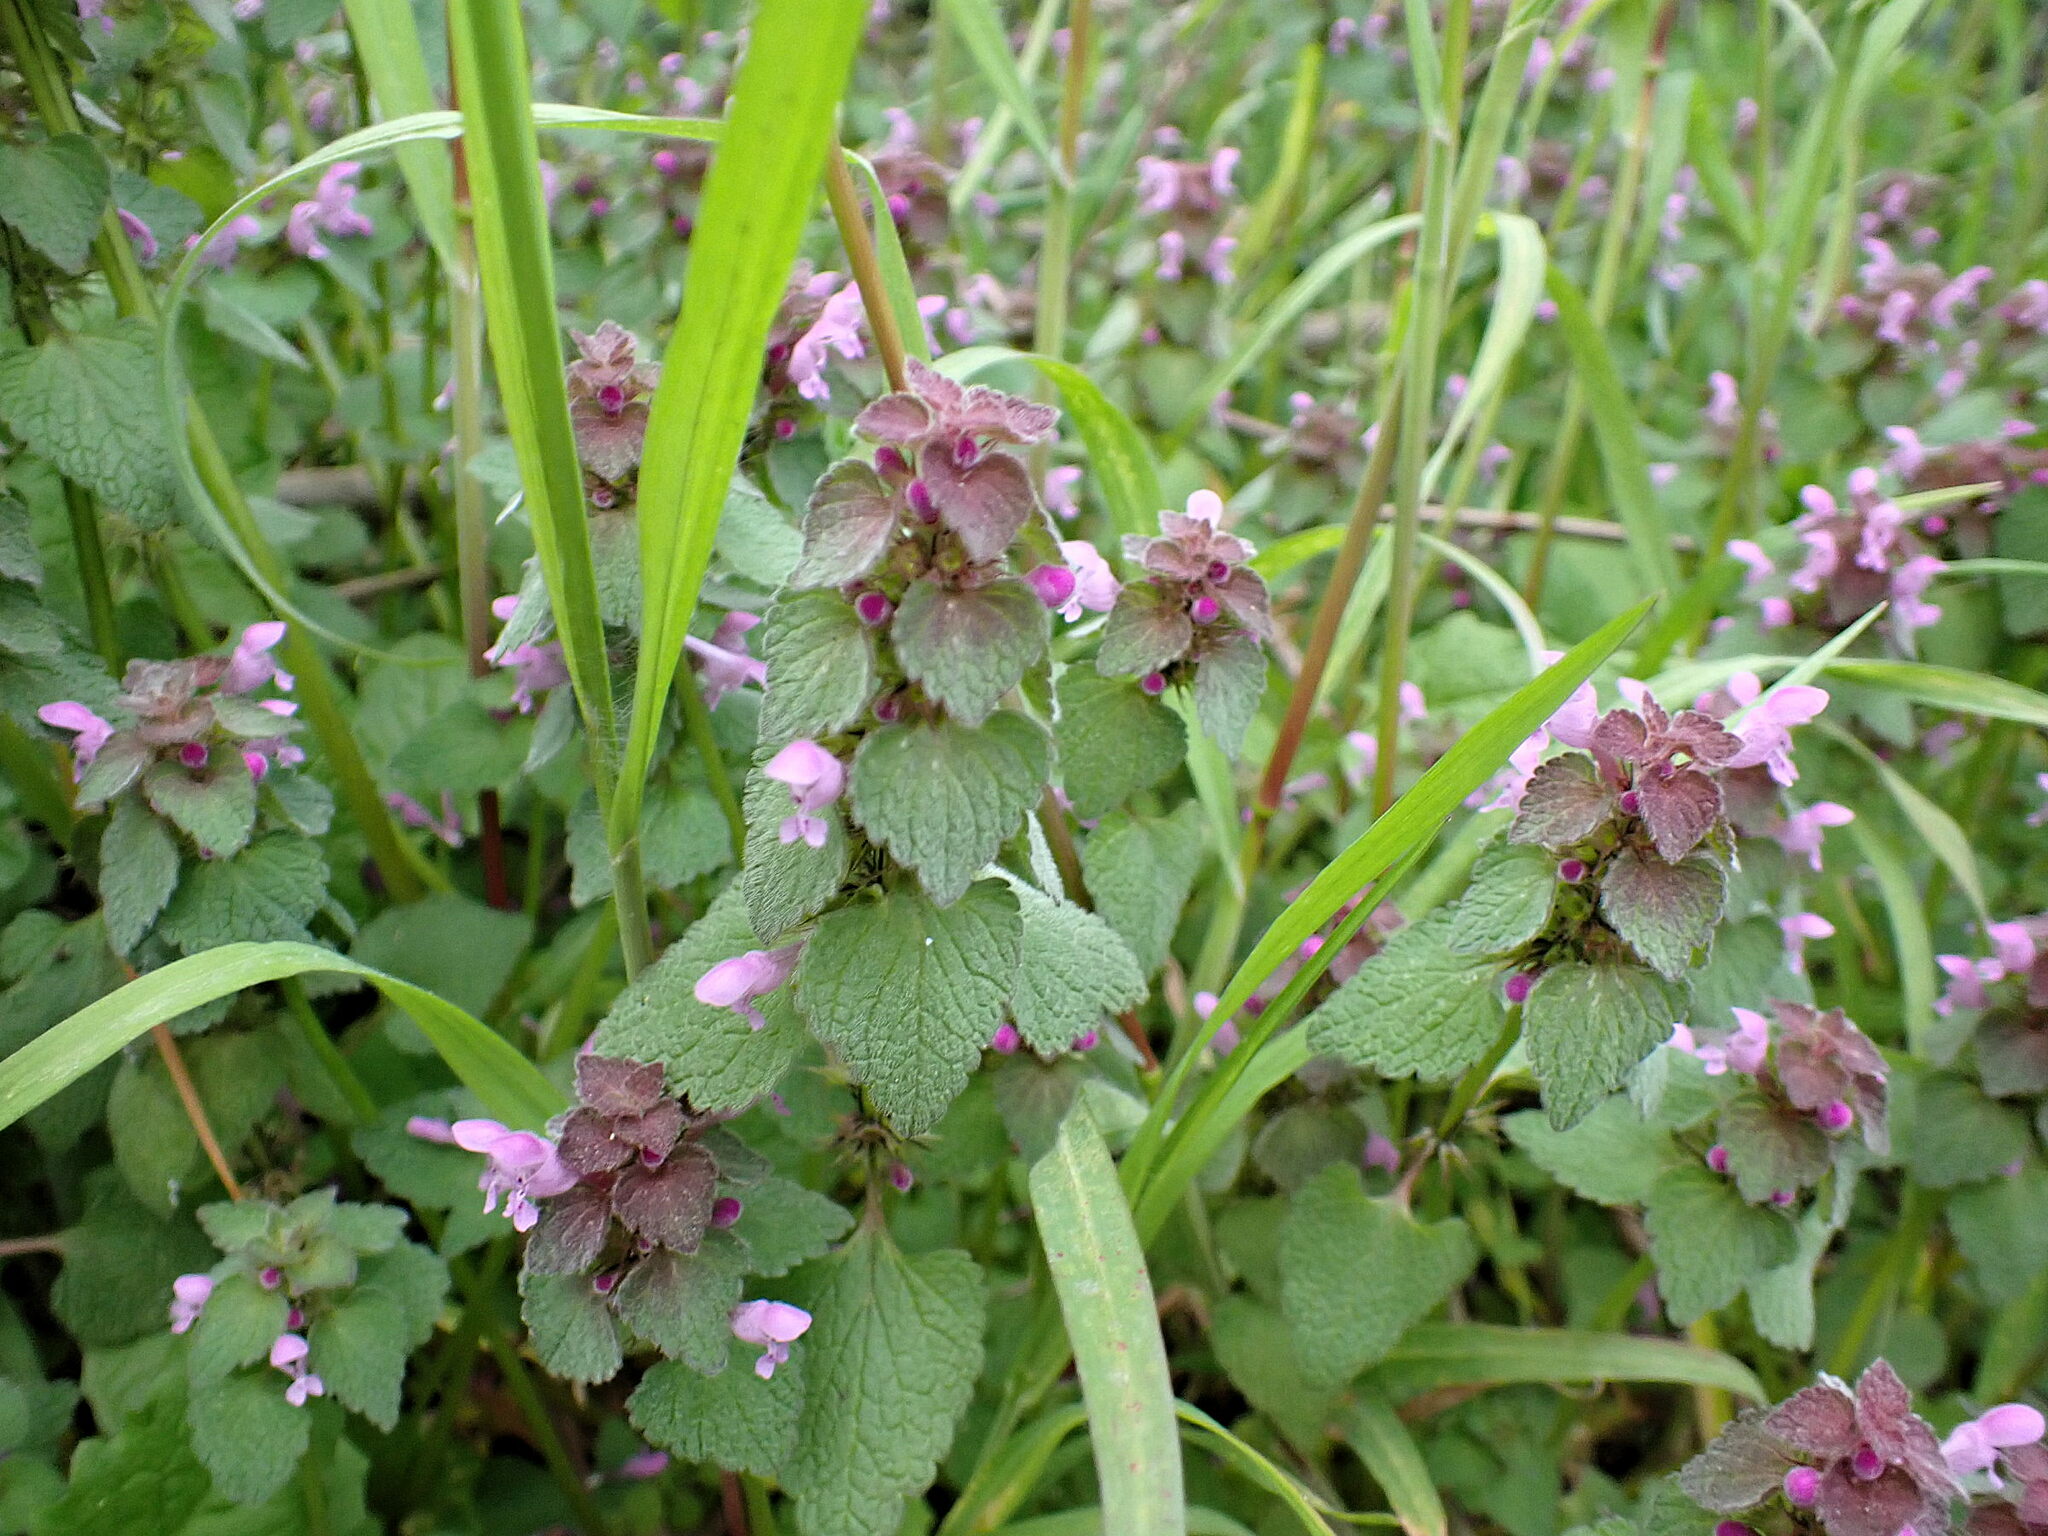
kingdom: Plantae
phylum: Tracheophyta
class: Magnoliopsida
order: Lamiales
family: Lamiaceae
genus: Lamium
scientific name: Lamium purpureum
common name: Red dead-nettle
